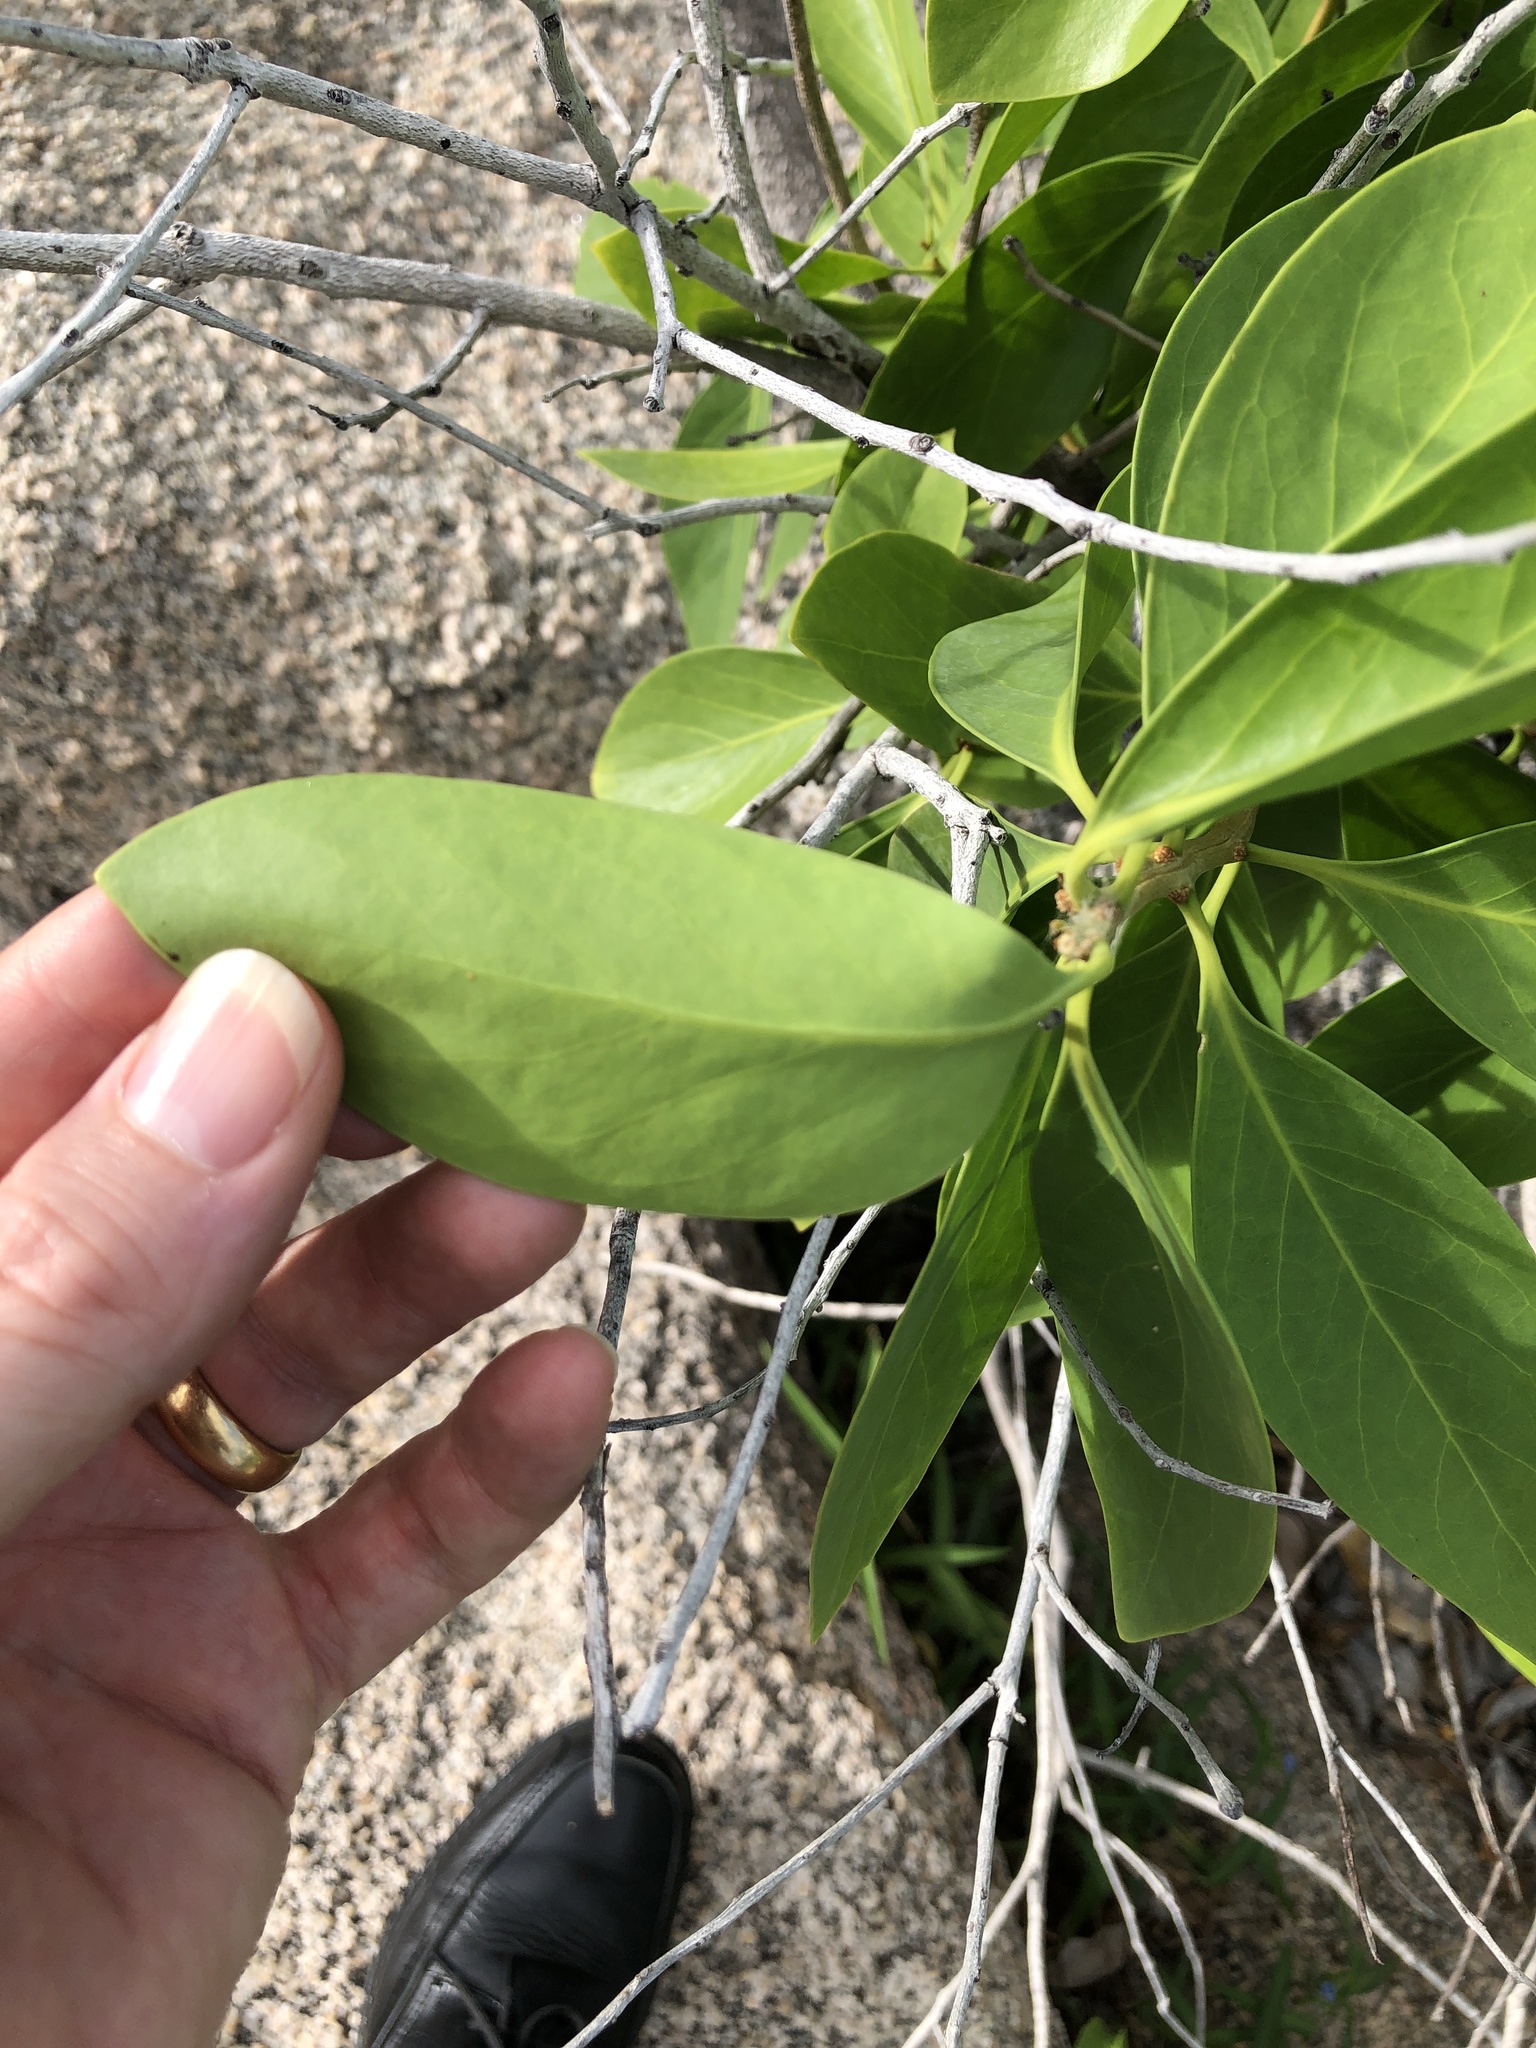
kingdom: Plantae
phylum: Tracheophyta
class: Magnoliopsida
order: Celastrales
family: Celastraceae
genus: Denhamia
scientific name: Denhamia disperma
